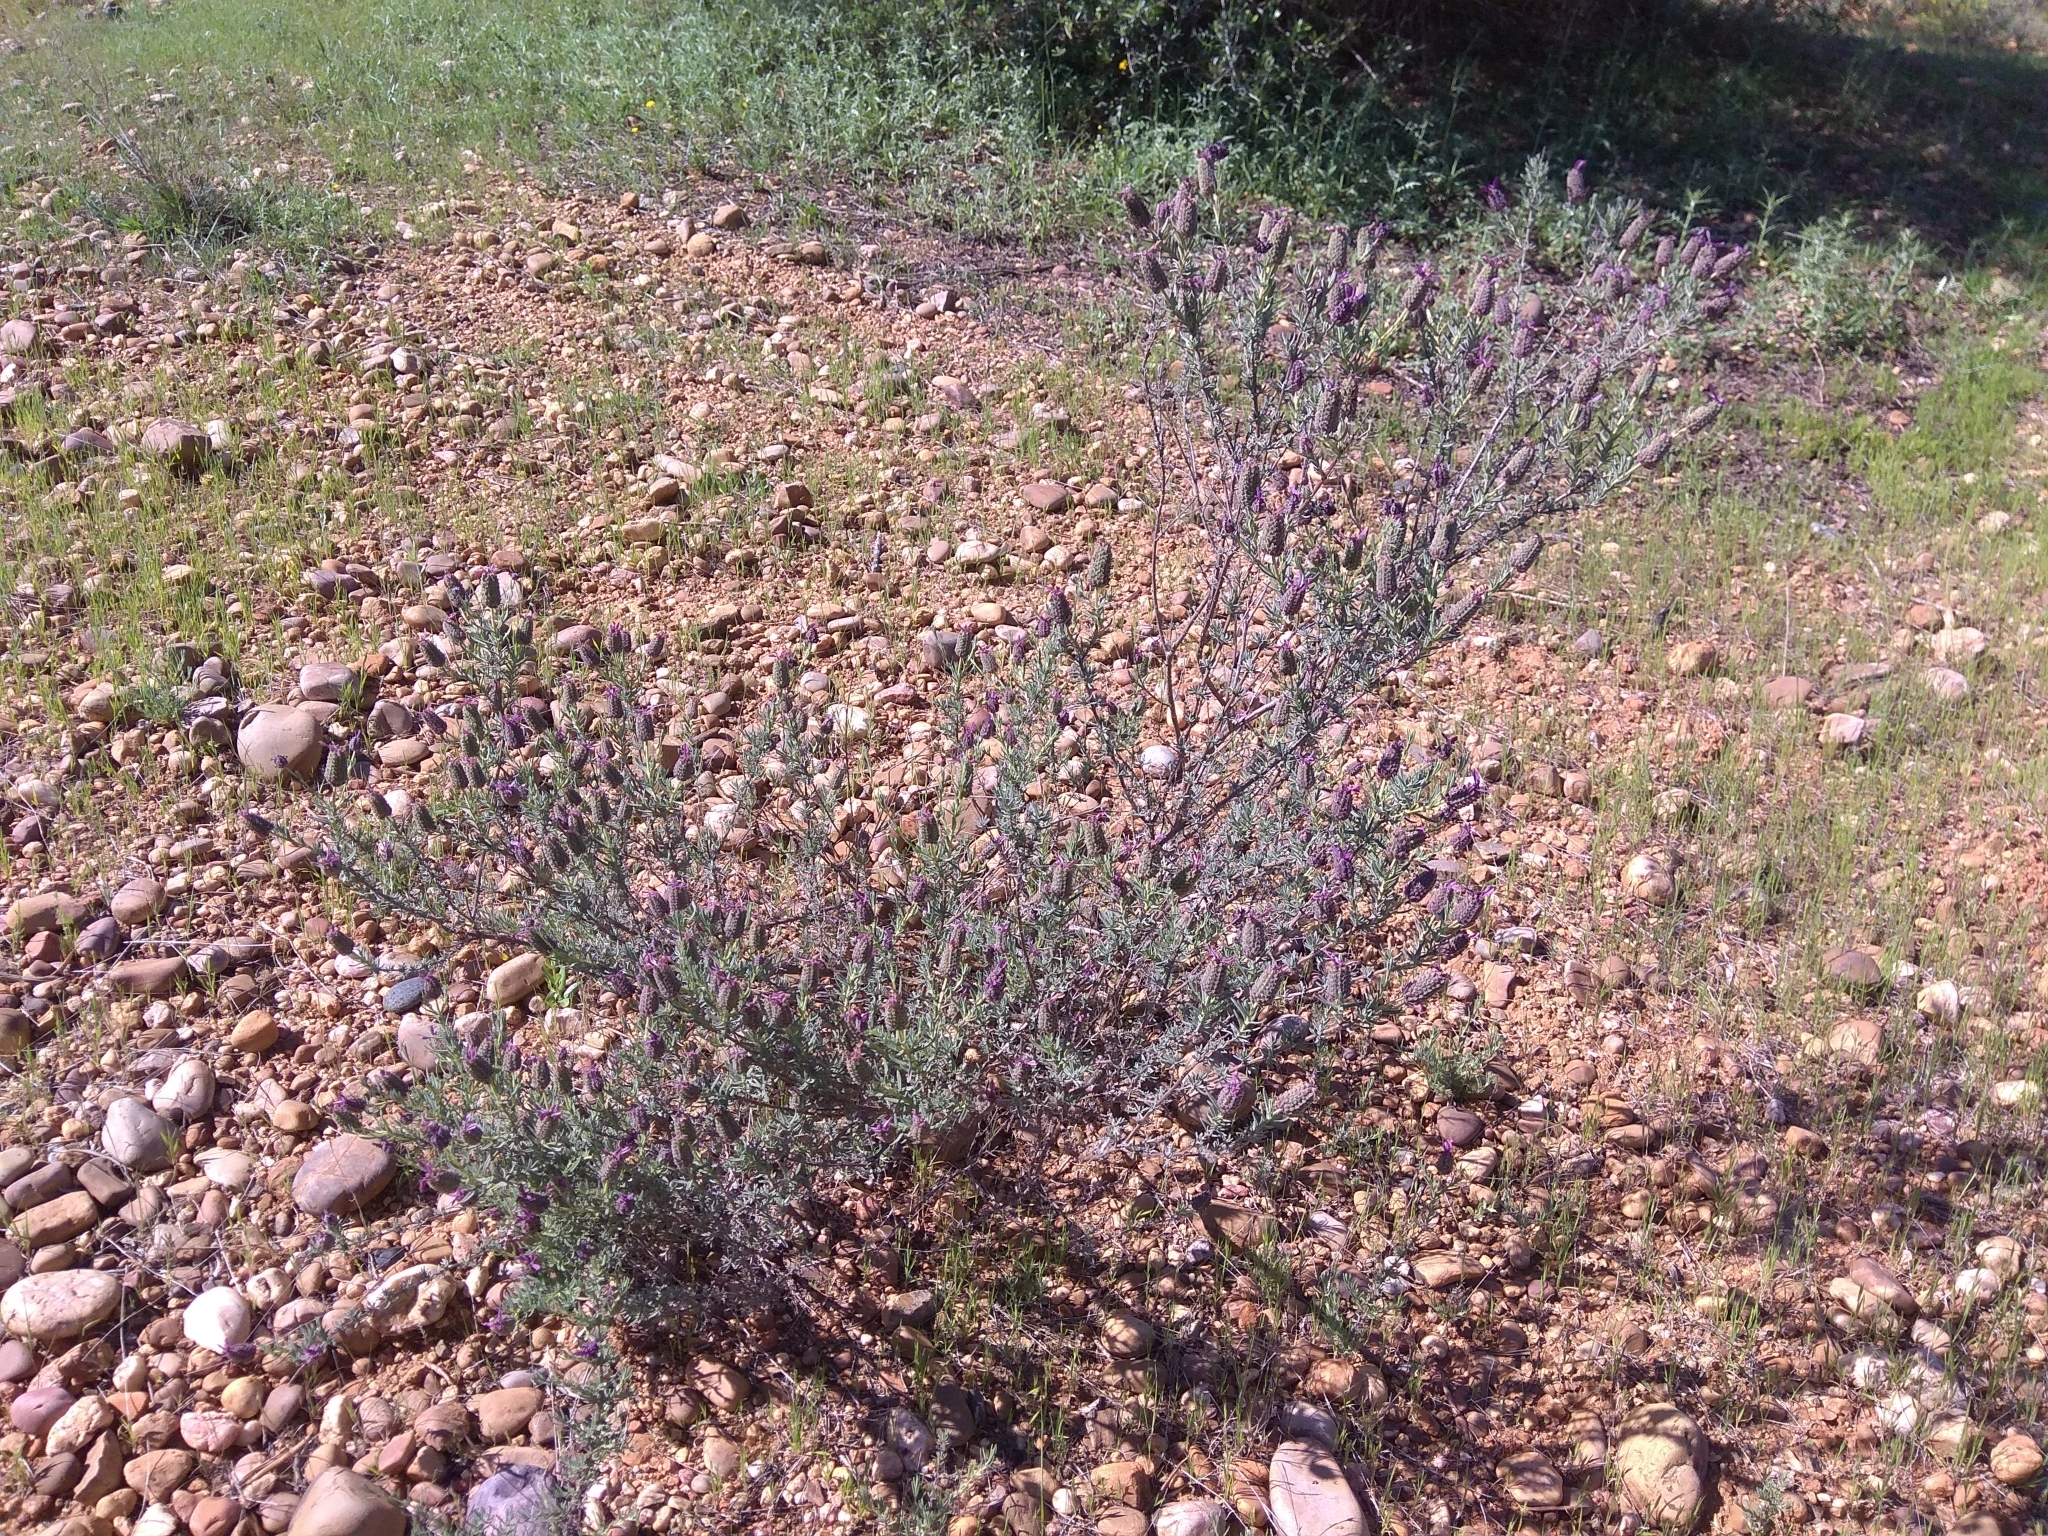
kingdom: Plantae
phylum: Tracheophyta
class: Magnoliopsida
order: Lamiales
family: Lamiaceae
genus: Lavandula
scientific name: Lavandula stoechas
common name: French lavender
